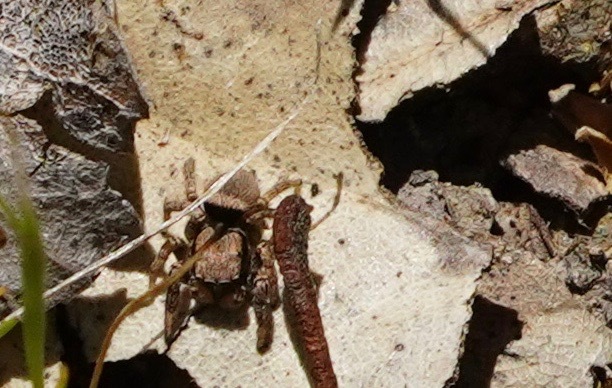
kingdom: Animalia
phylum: Arthropoda
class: Arachnida
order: Araneae
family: Salticidae
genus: Habronattus
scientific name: Habronattus oregonensis
